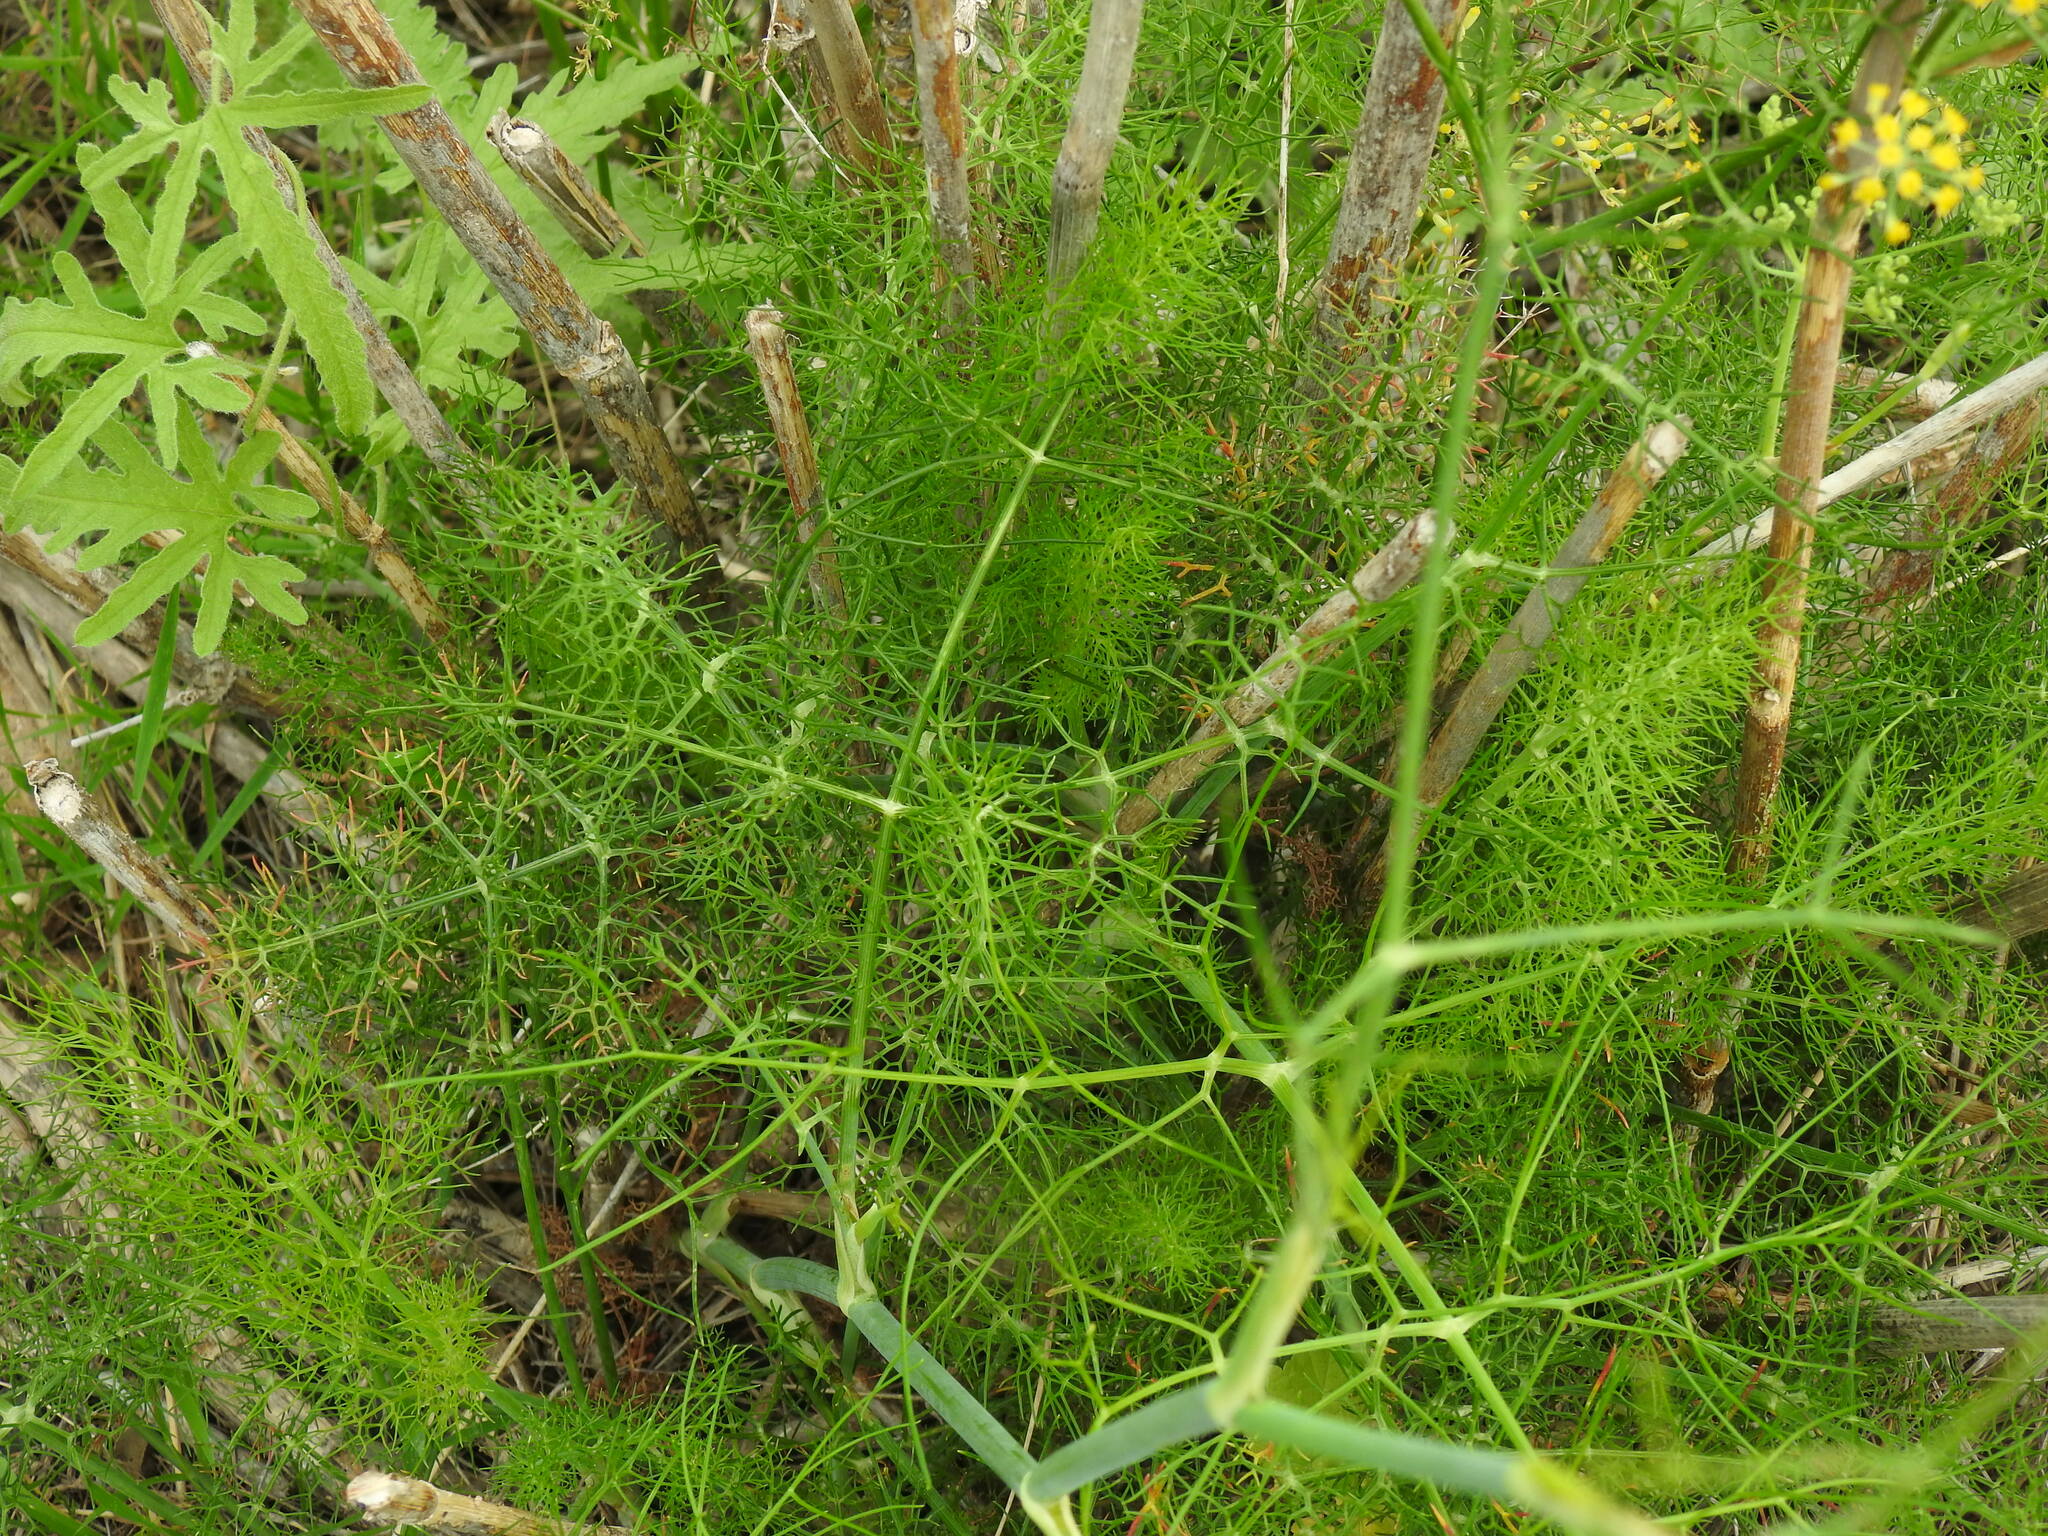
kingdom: Plantae
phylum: Tracheophyta
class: Magnoliopsida
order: Apiales
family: Apiaceae
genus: Foeniculum
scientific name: Foeniculum vulgare
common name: Fennel
